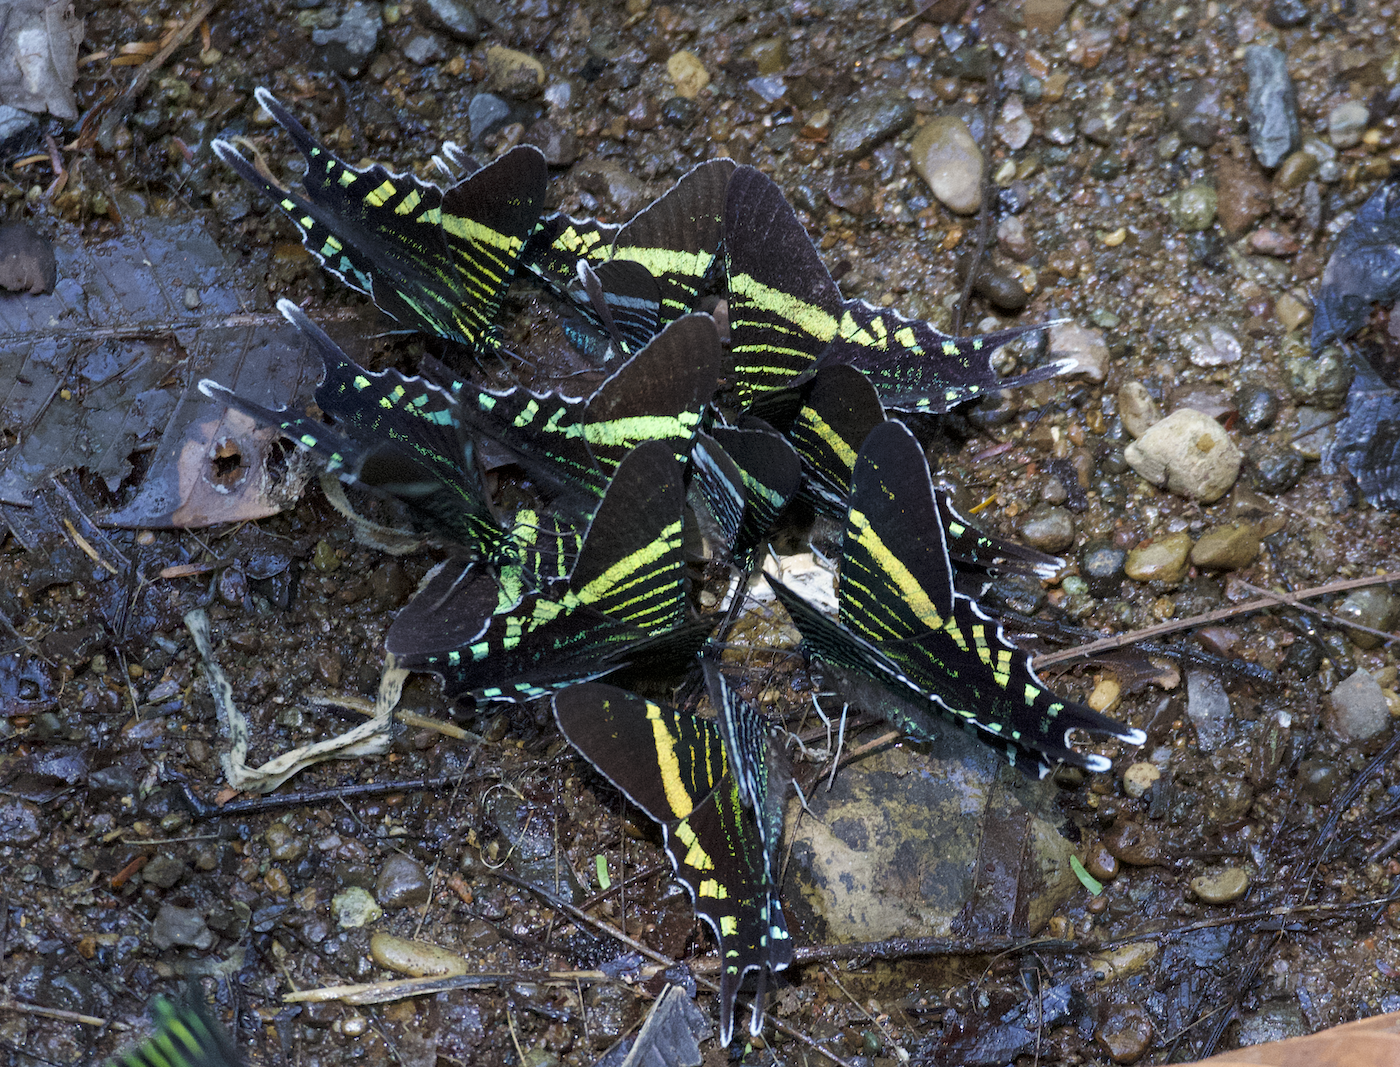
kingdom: Animalia
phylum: Arthropoda
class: Insecta
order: Lepidoptera
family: Uraniidae
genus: Urania
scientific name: Urania fulgens
